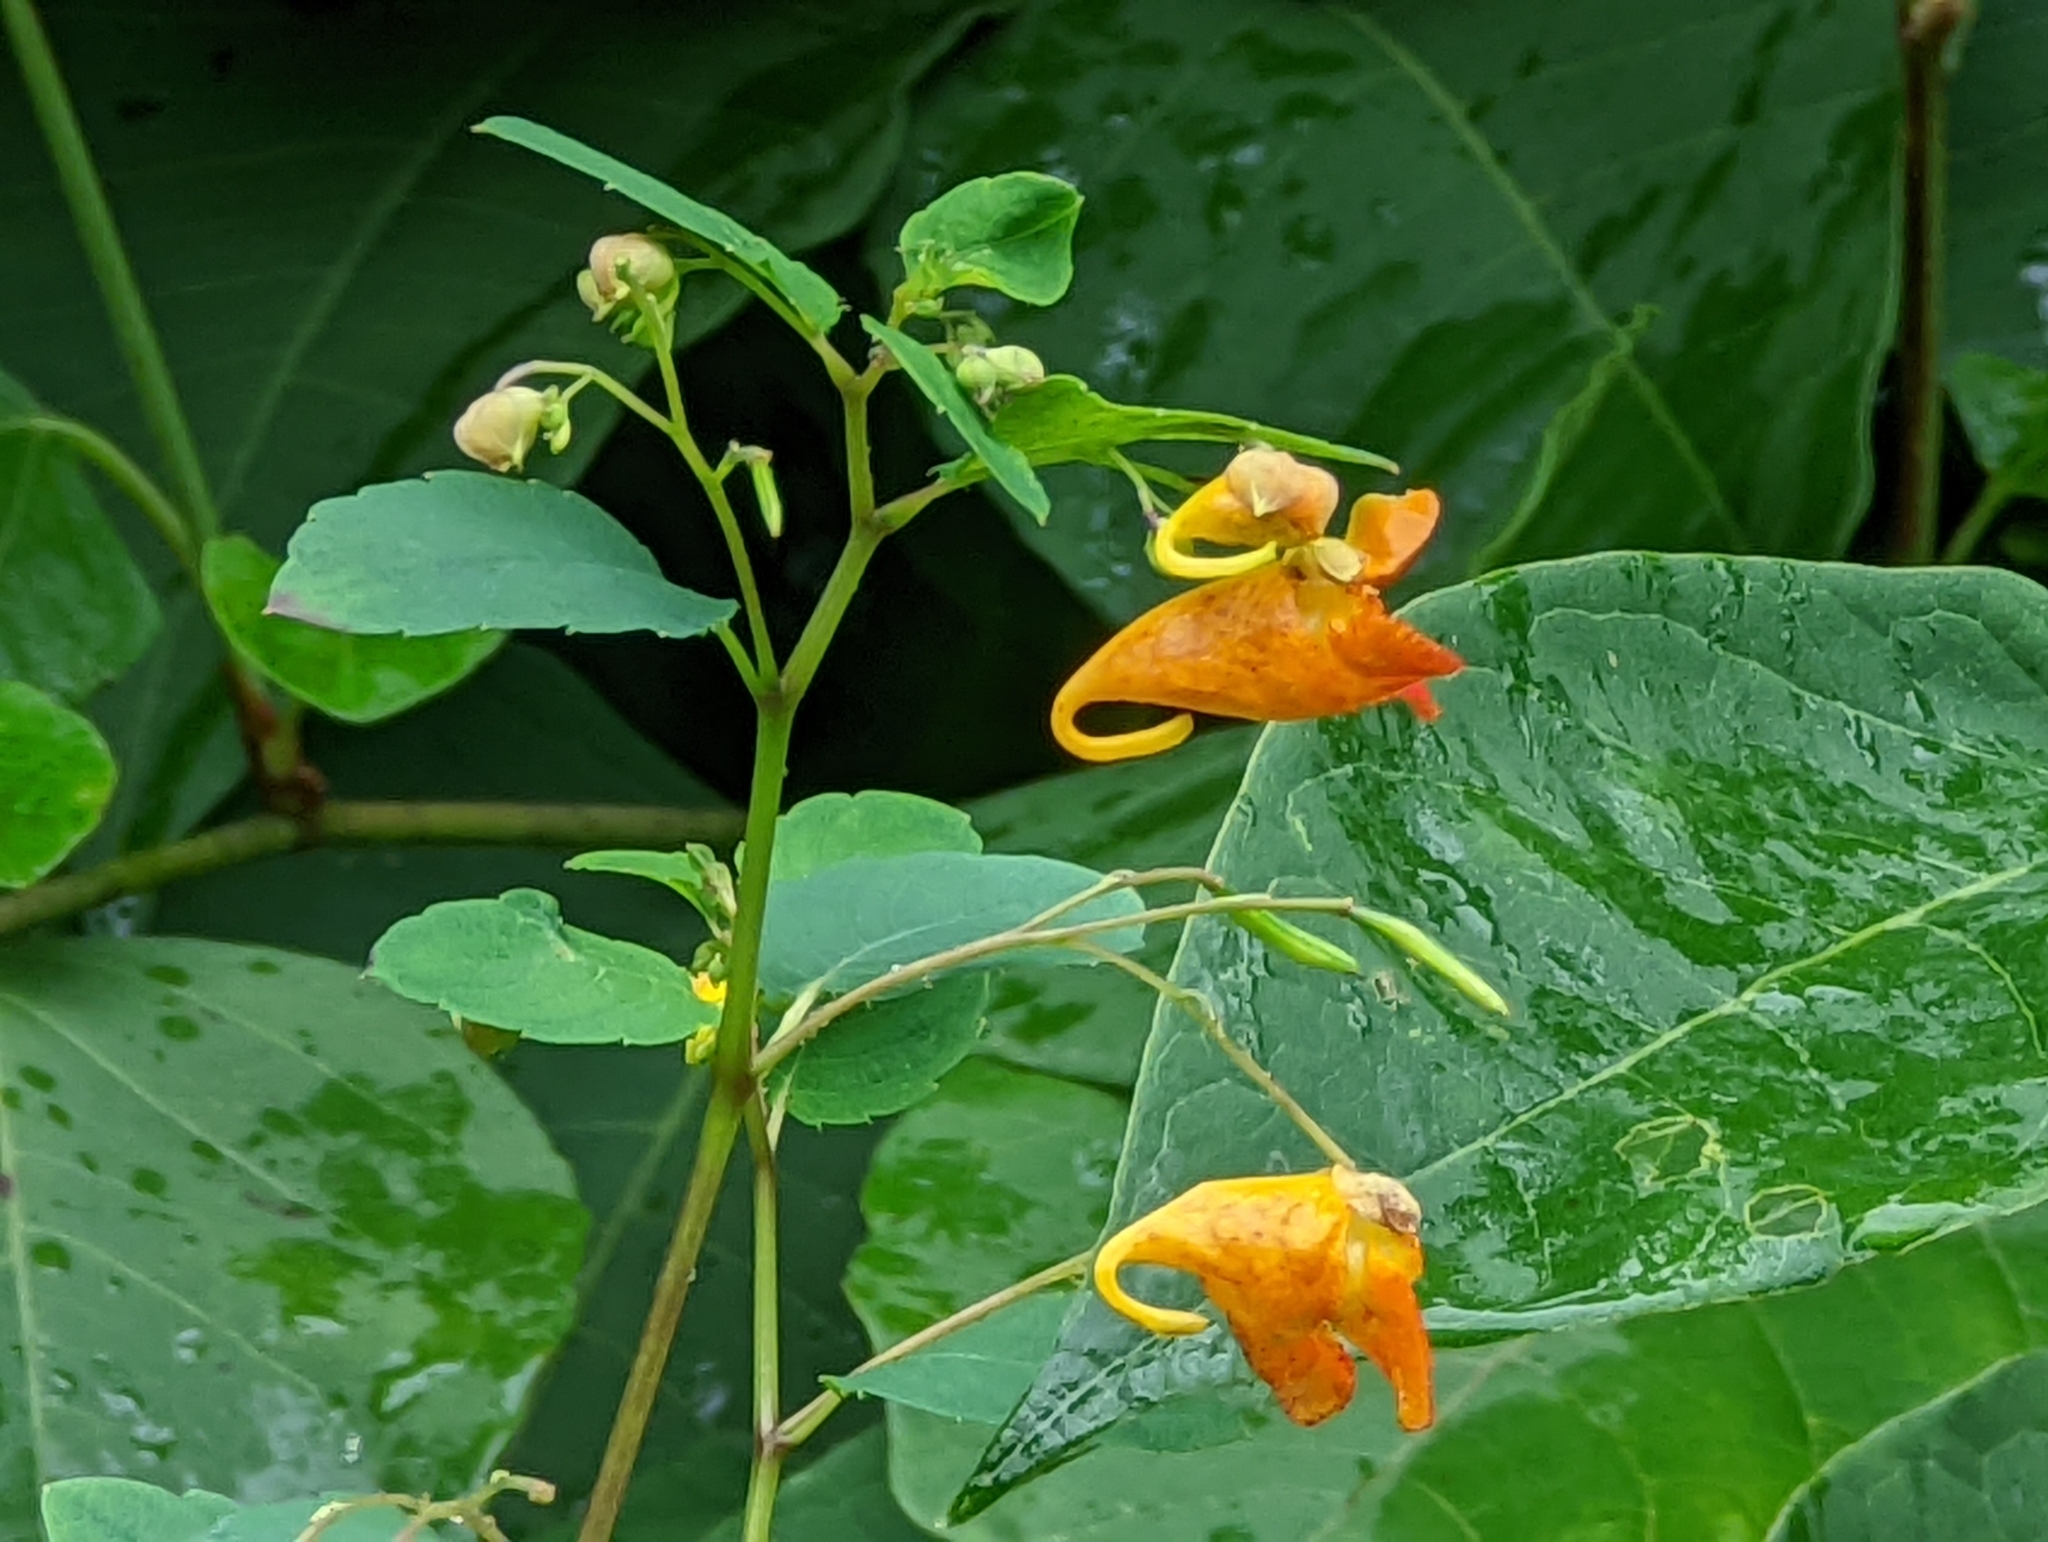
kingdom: Plantae
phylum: Tracheophyta
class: Magnoliopsida
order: Ericales
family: Balsaminaceae
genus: Impatiens
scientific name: Impatiens capensis
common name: Orange balsam
